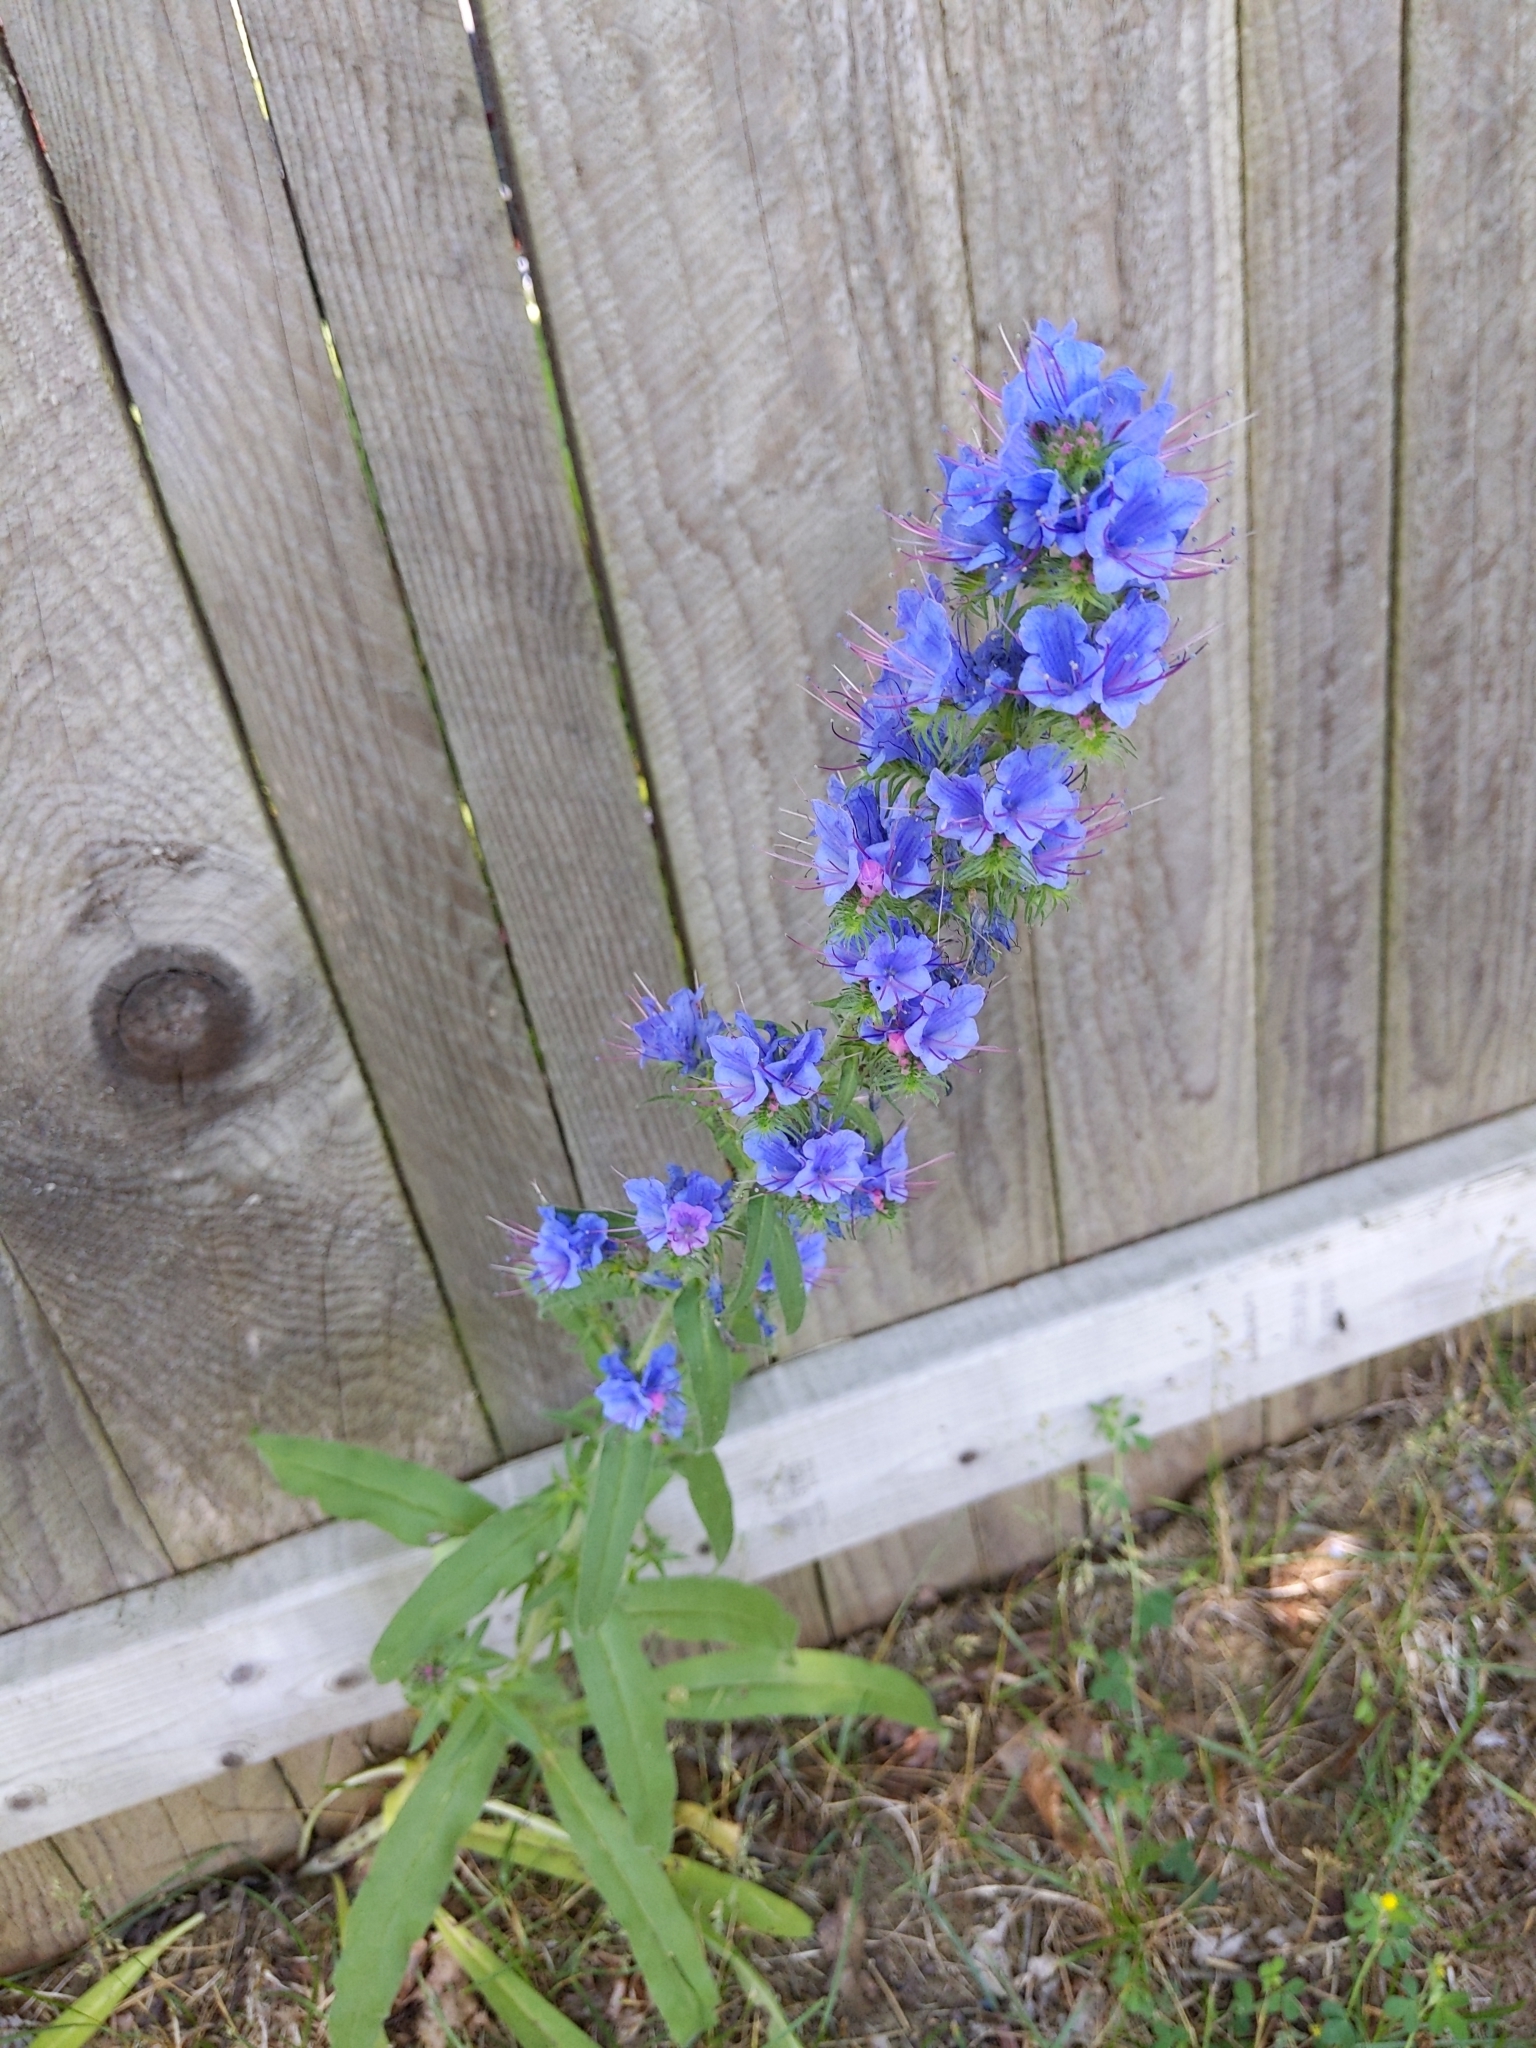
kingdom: Plantae
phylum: Tracheophyta
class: Magnoliopsida
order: Boraginales
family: Boraginaceae
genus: Echium
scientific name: Echium vulgare
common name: Common viper's bugloss
